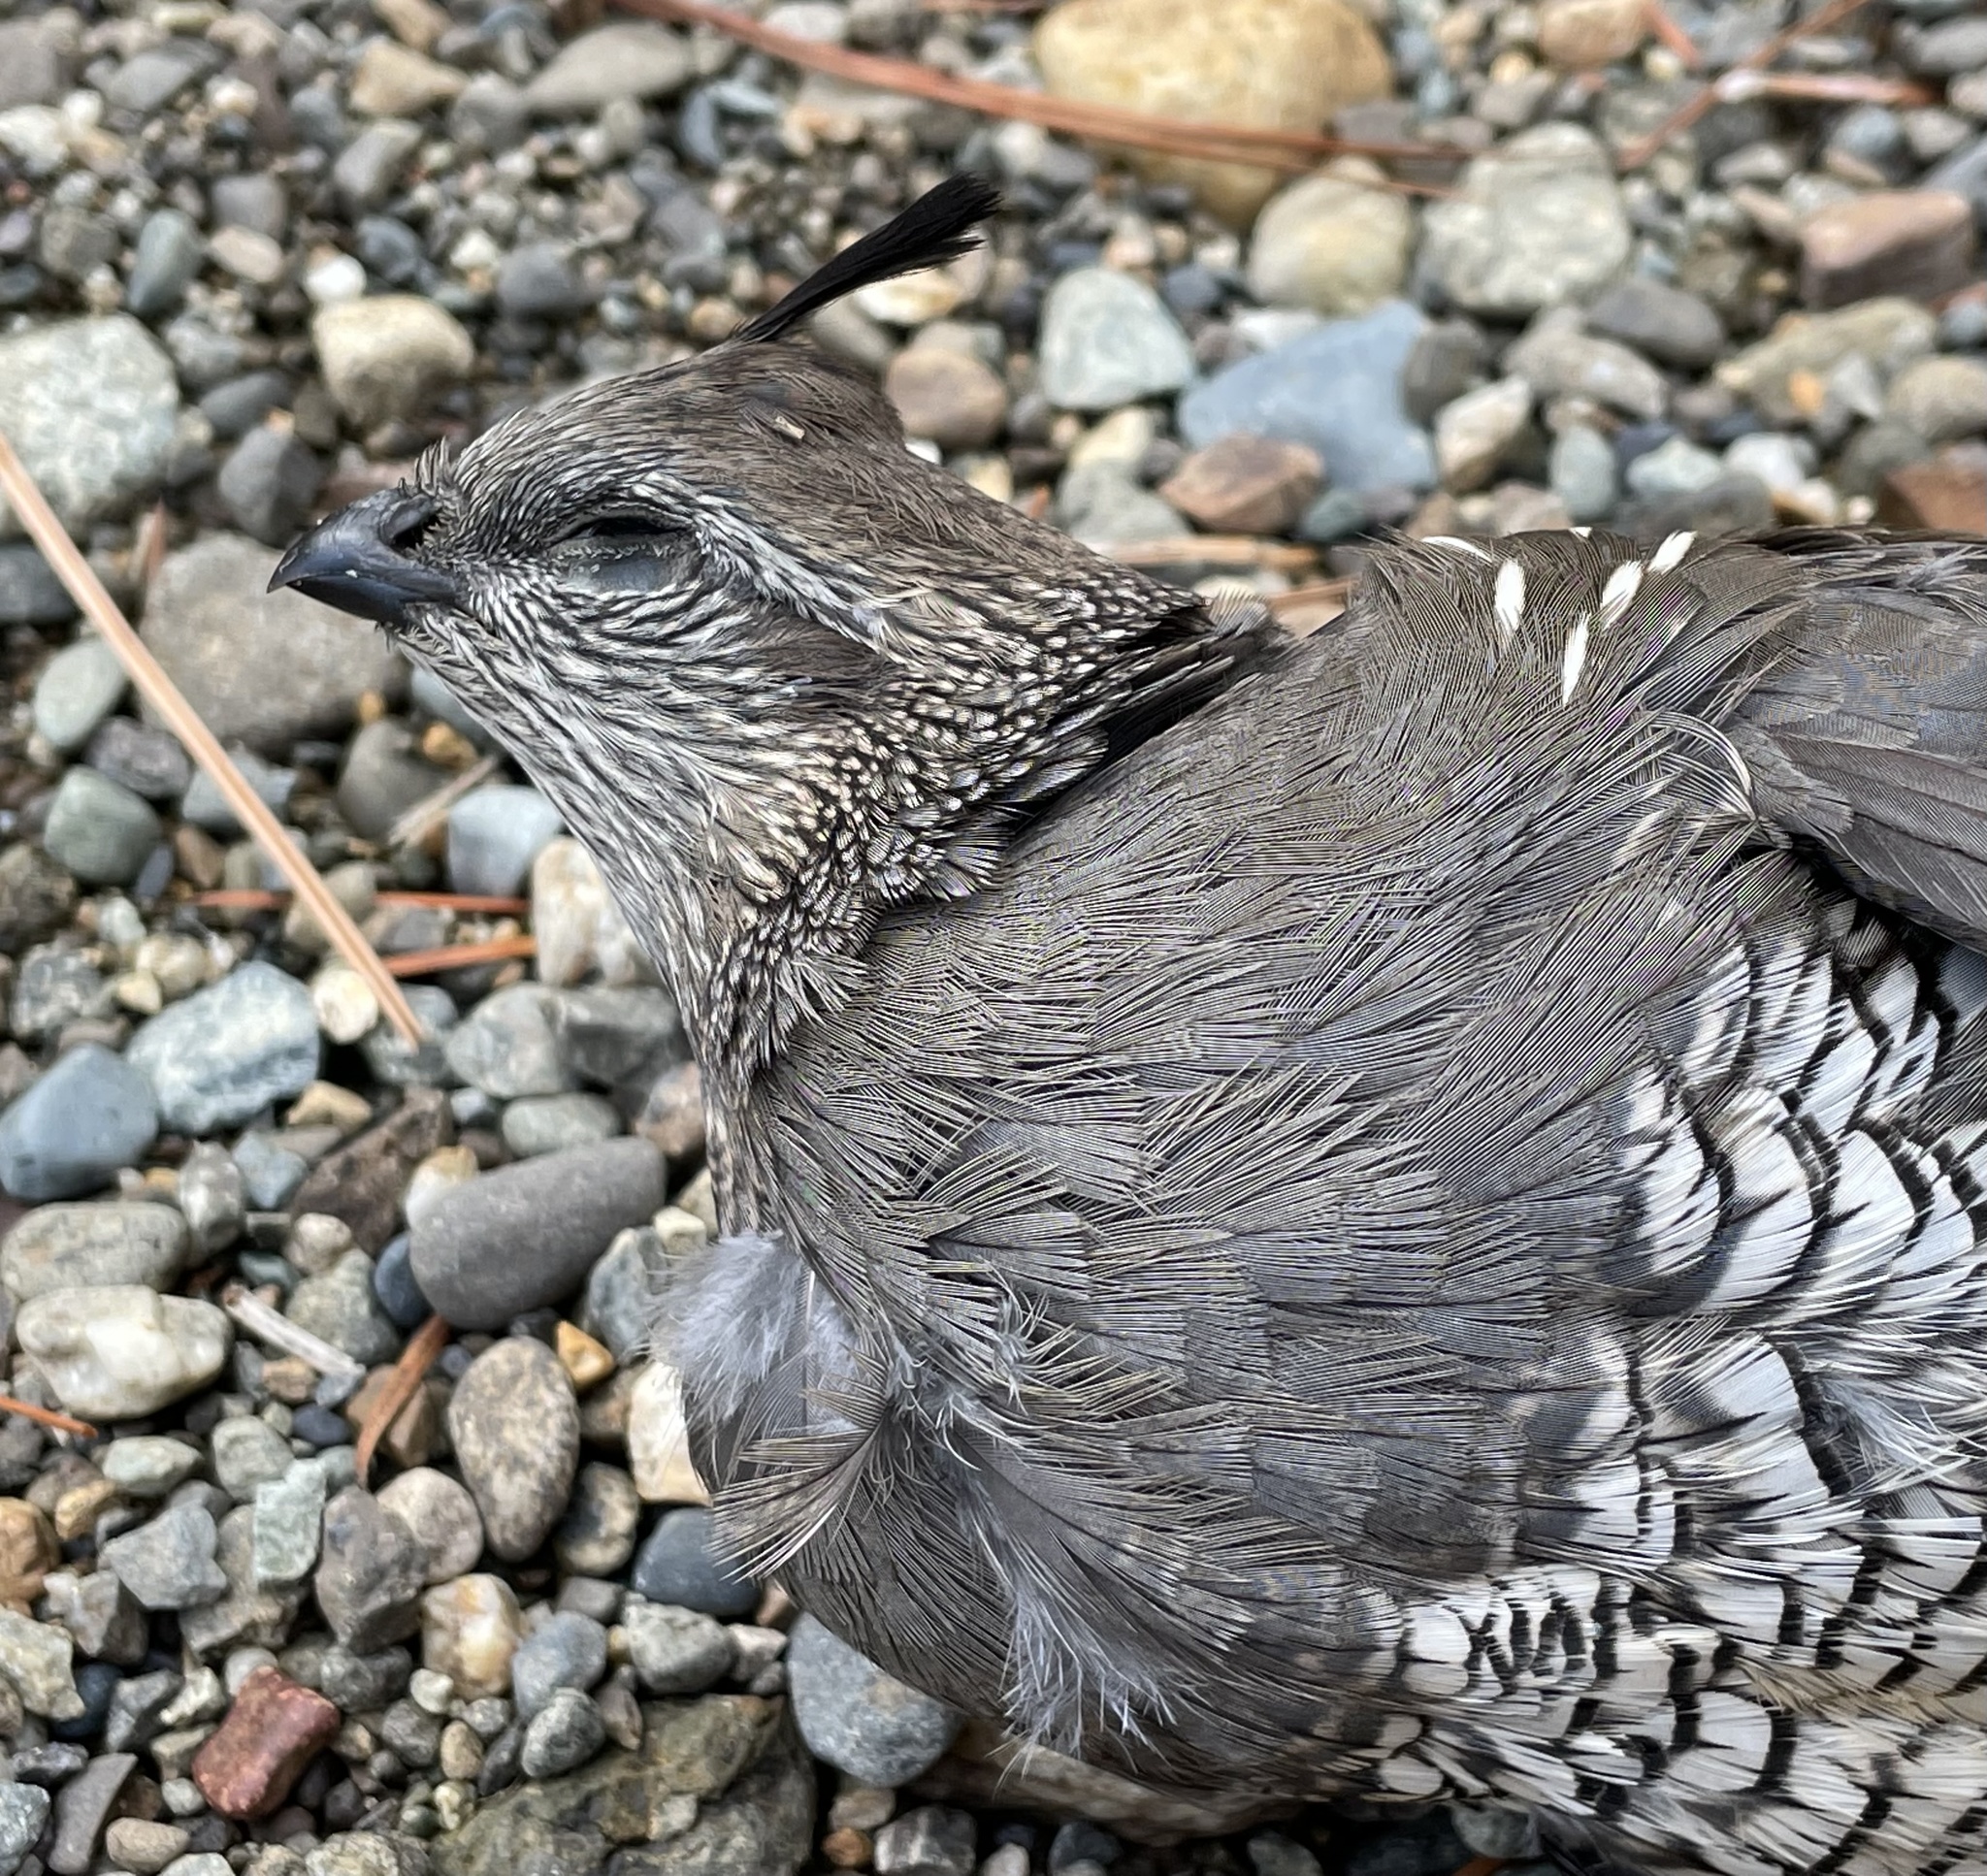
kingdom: Animalia
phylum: Chordata
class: Aves
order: Galliformes
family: Odontophoridae
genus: Callipepla
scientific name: Callipepla californica
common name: California quail
